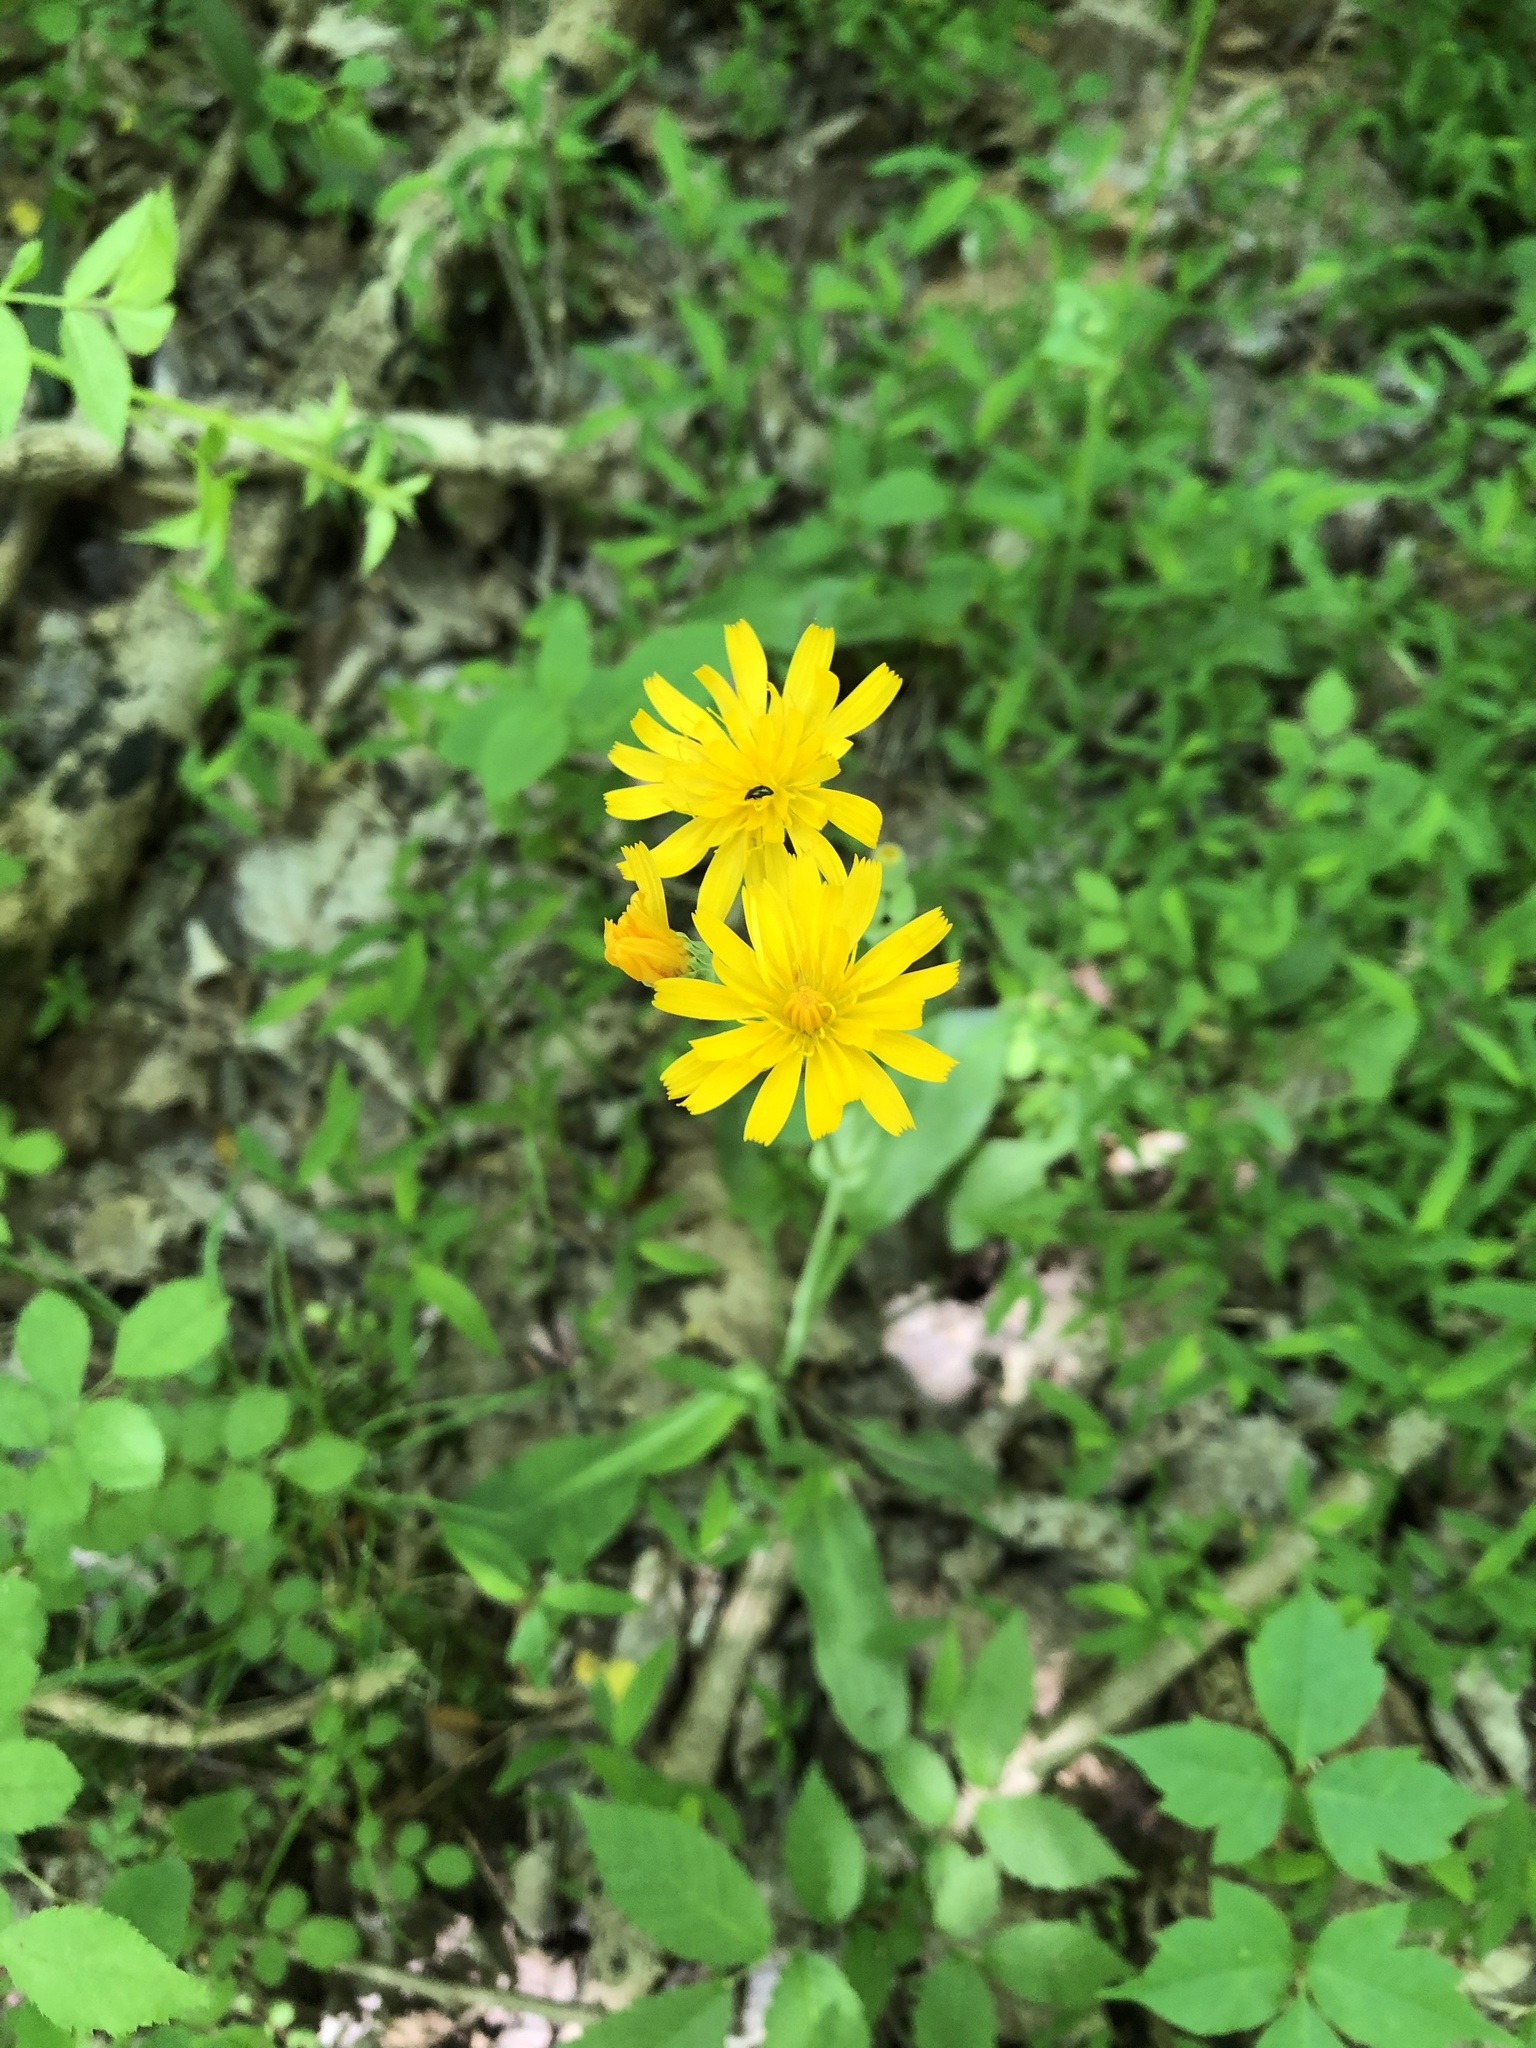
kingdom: Plantae
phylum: Tracheophyta
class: Magnoliopsida
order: Asterales
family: Asteraceae
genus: Krigia
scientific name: Krigia biflora
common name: Orange dwarf-dandelion
